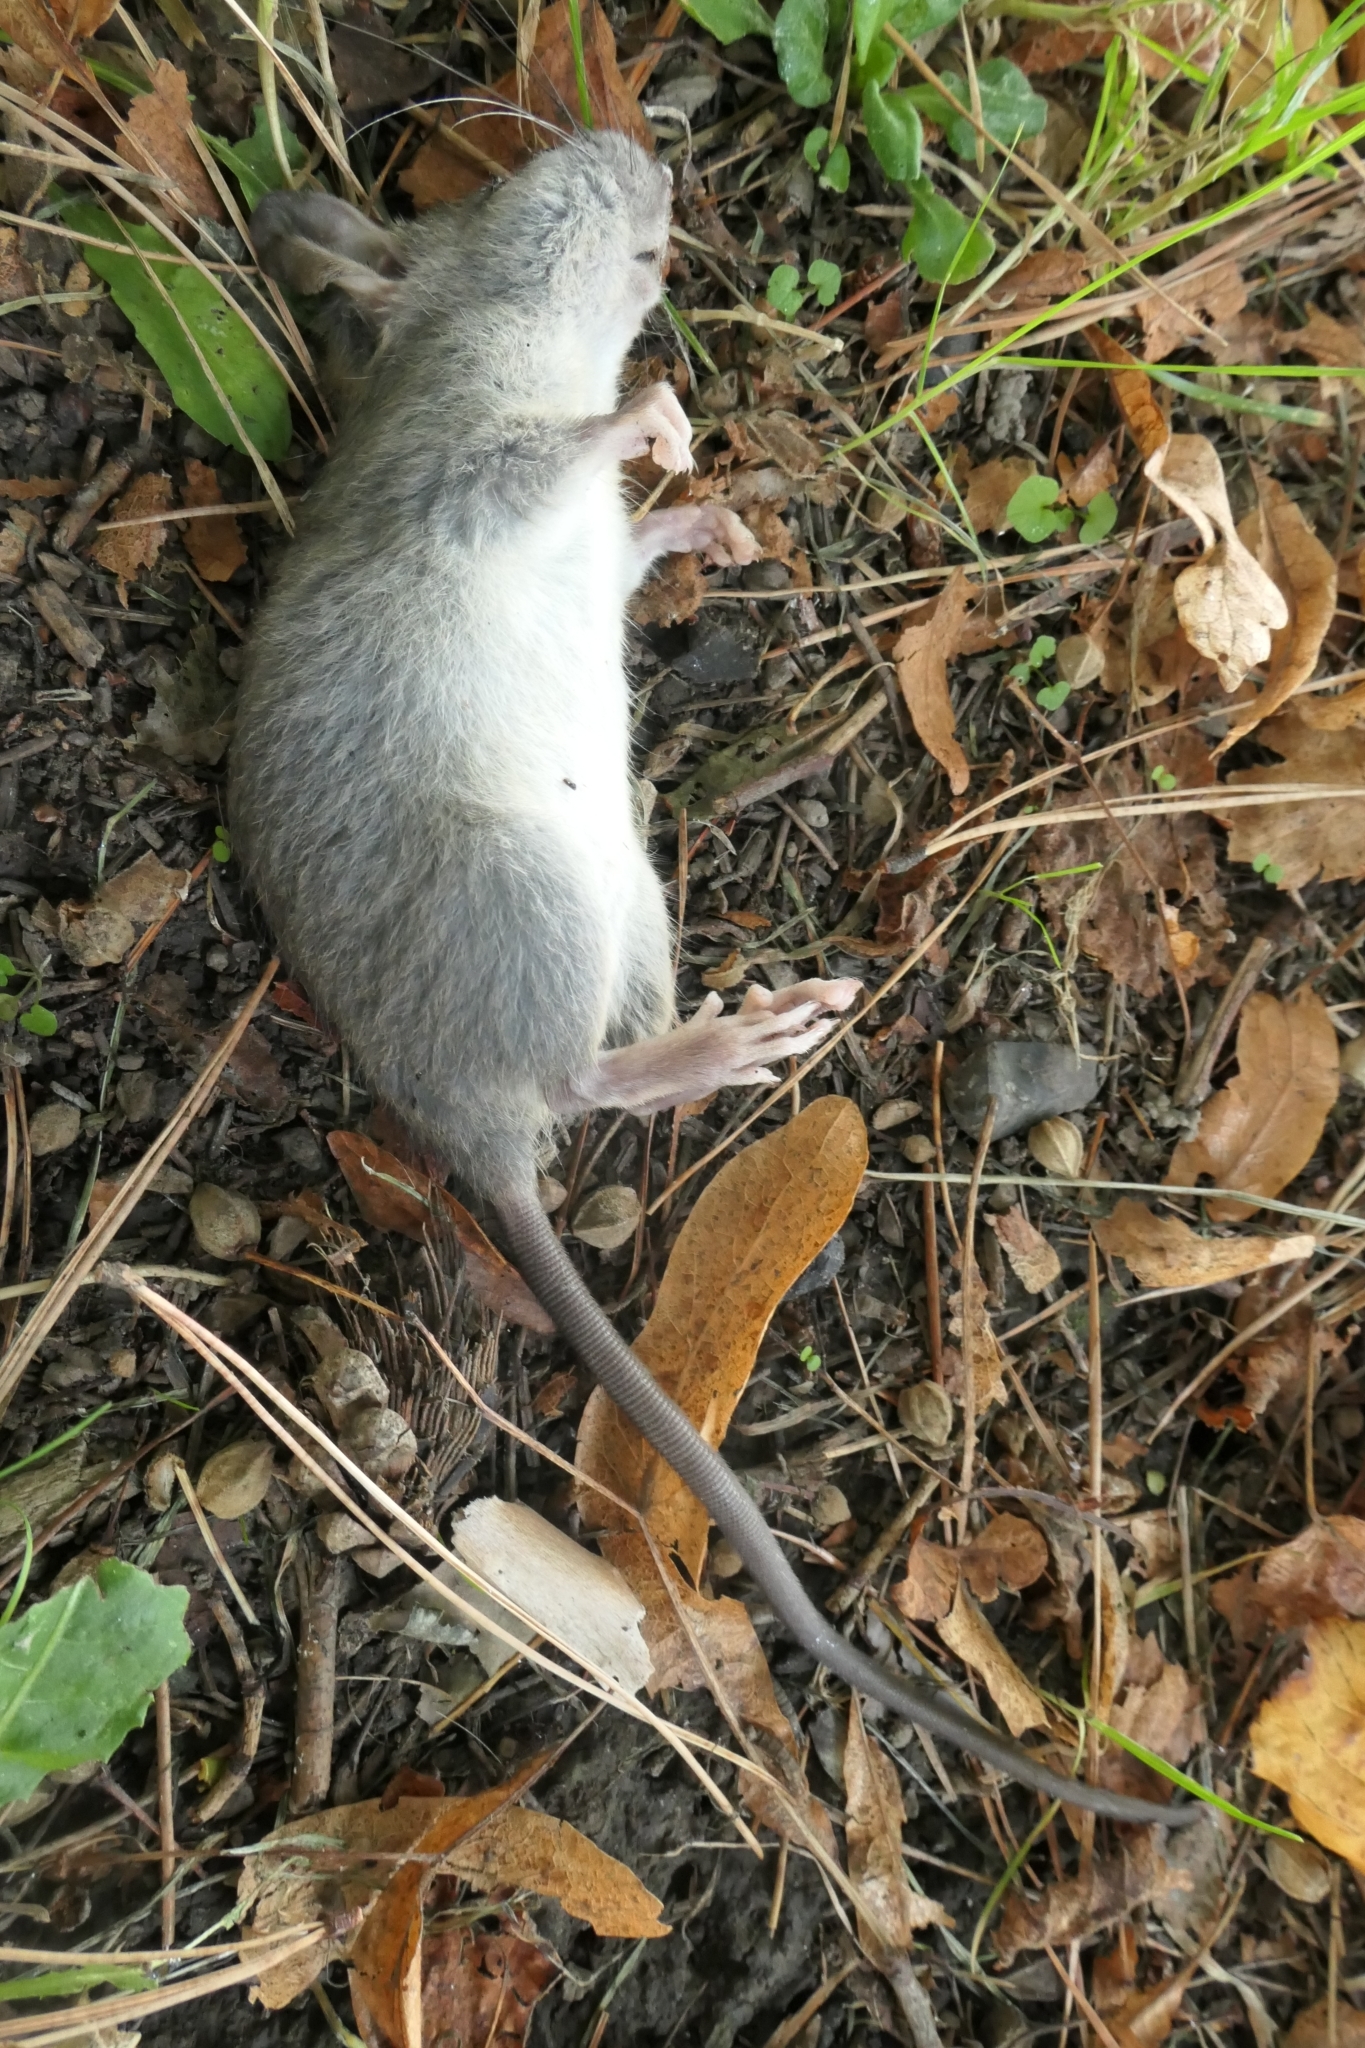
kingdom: Animalia
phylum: Chordata
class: Mammalia
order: Rodentia
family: Muridae
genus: Rattus
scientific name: Rattus rattus
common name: Black rat
